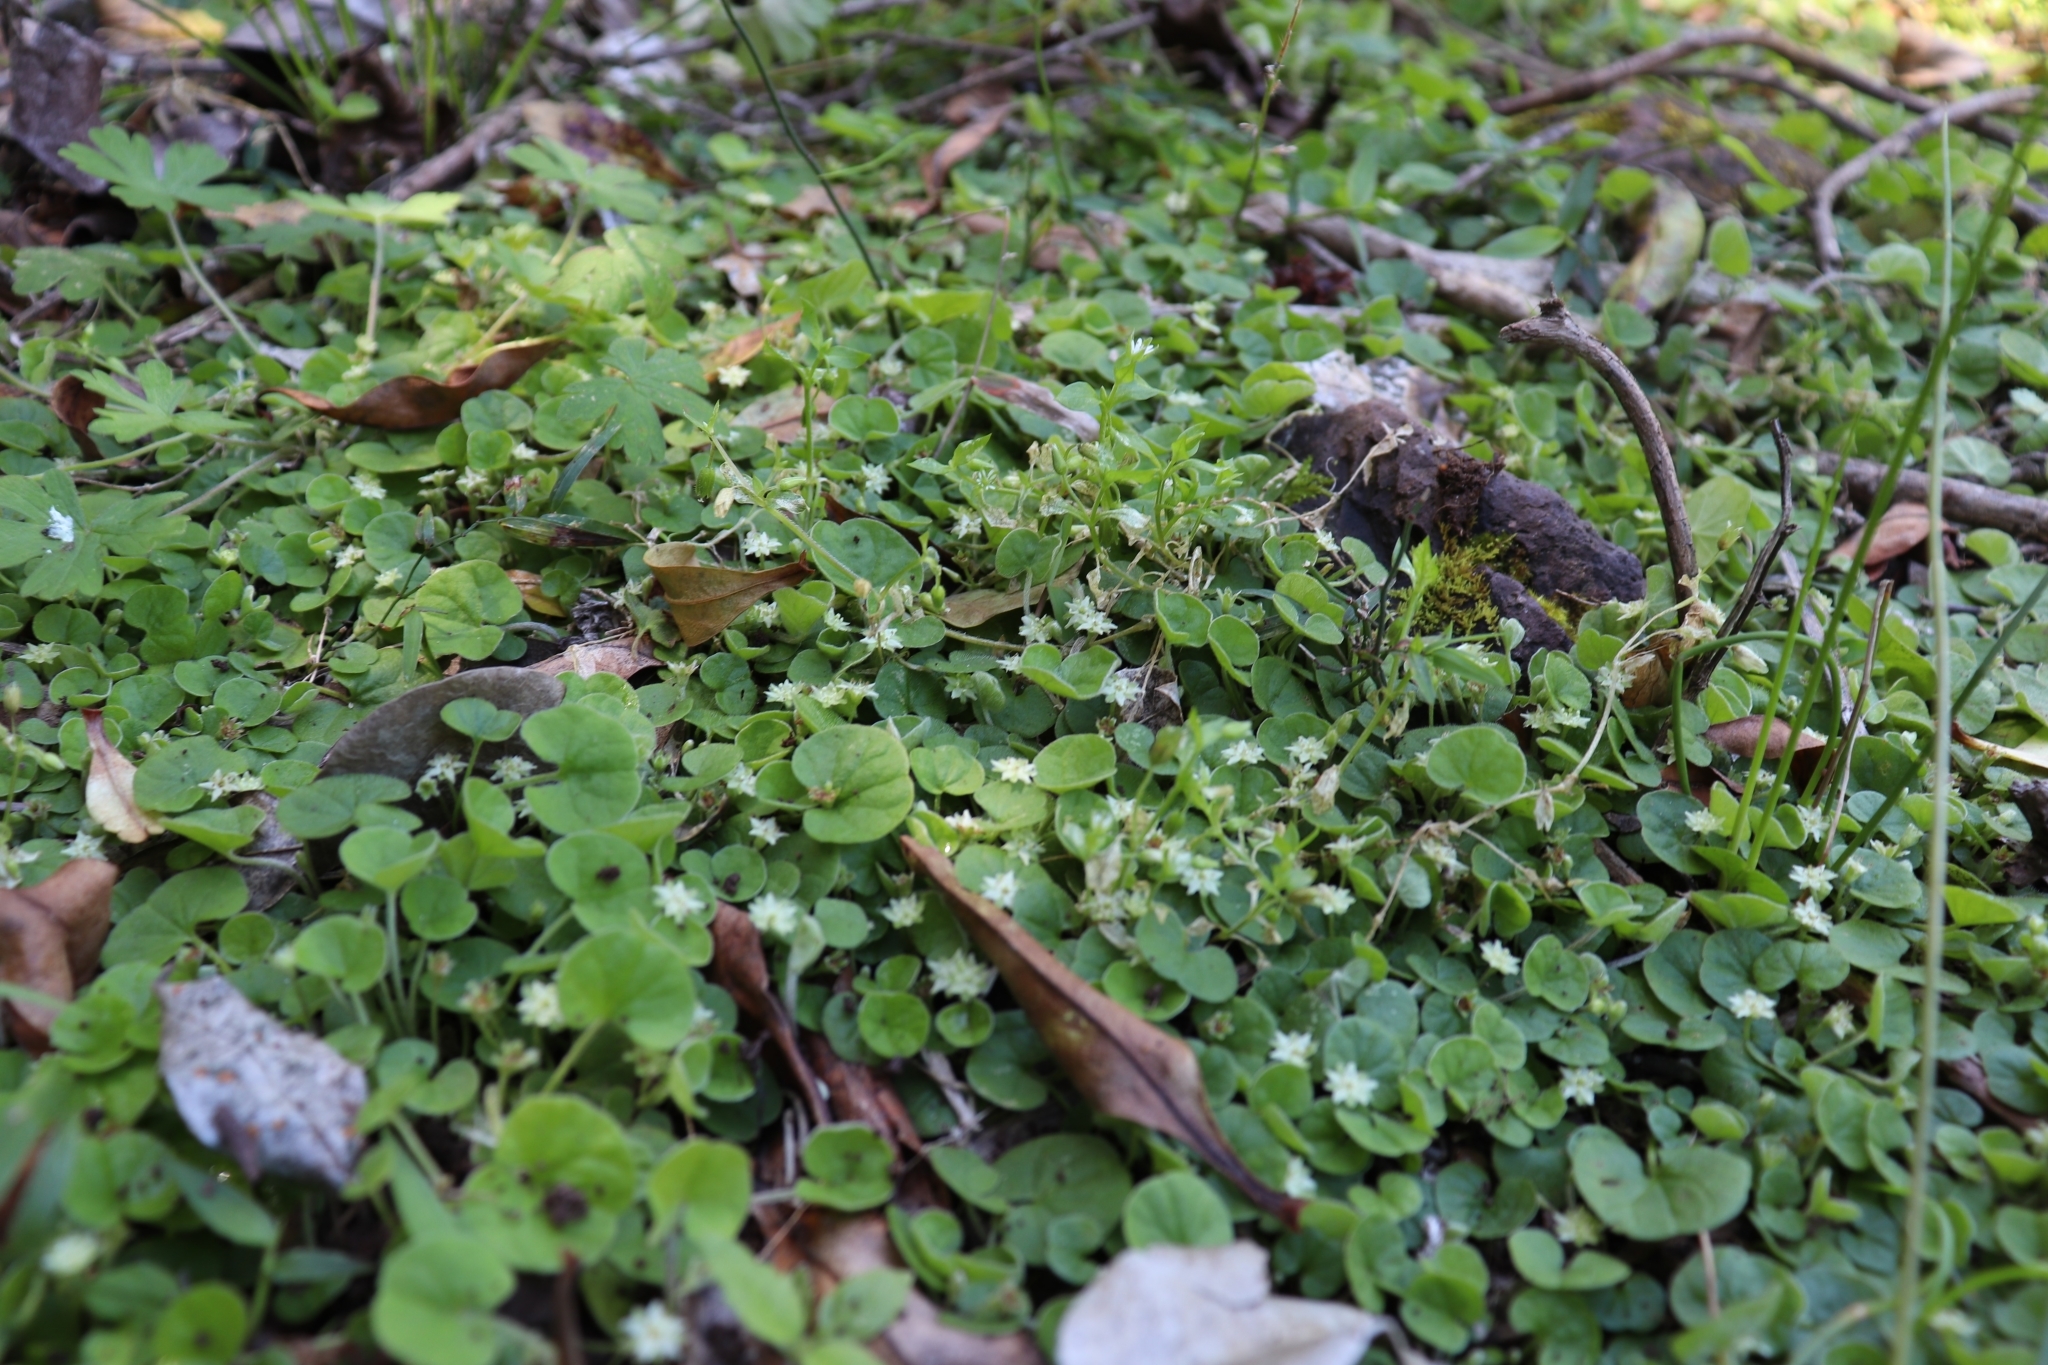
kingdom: Plantae
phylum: Tracheophyta
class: Magnoliopsida
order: Solanales
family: Convolvulaceae
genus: Dichondra
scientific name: Dichondra repens
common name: Kidneyweed
